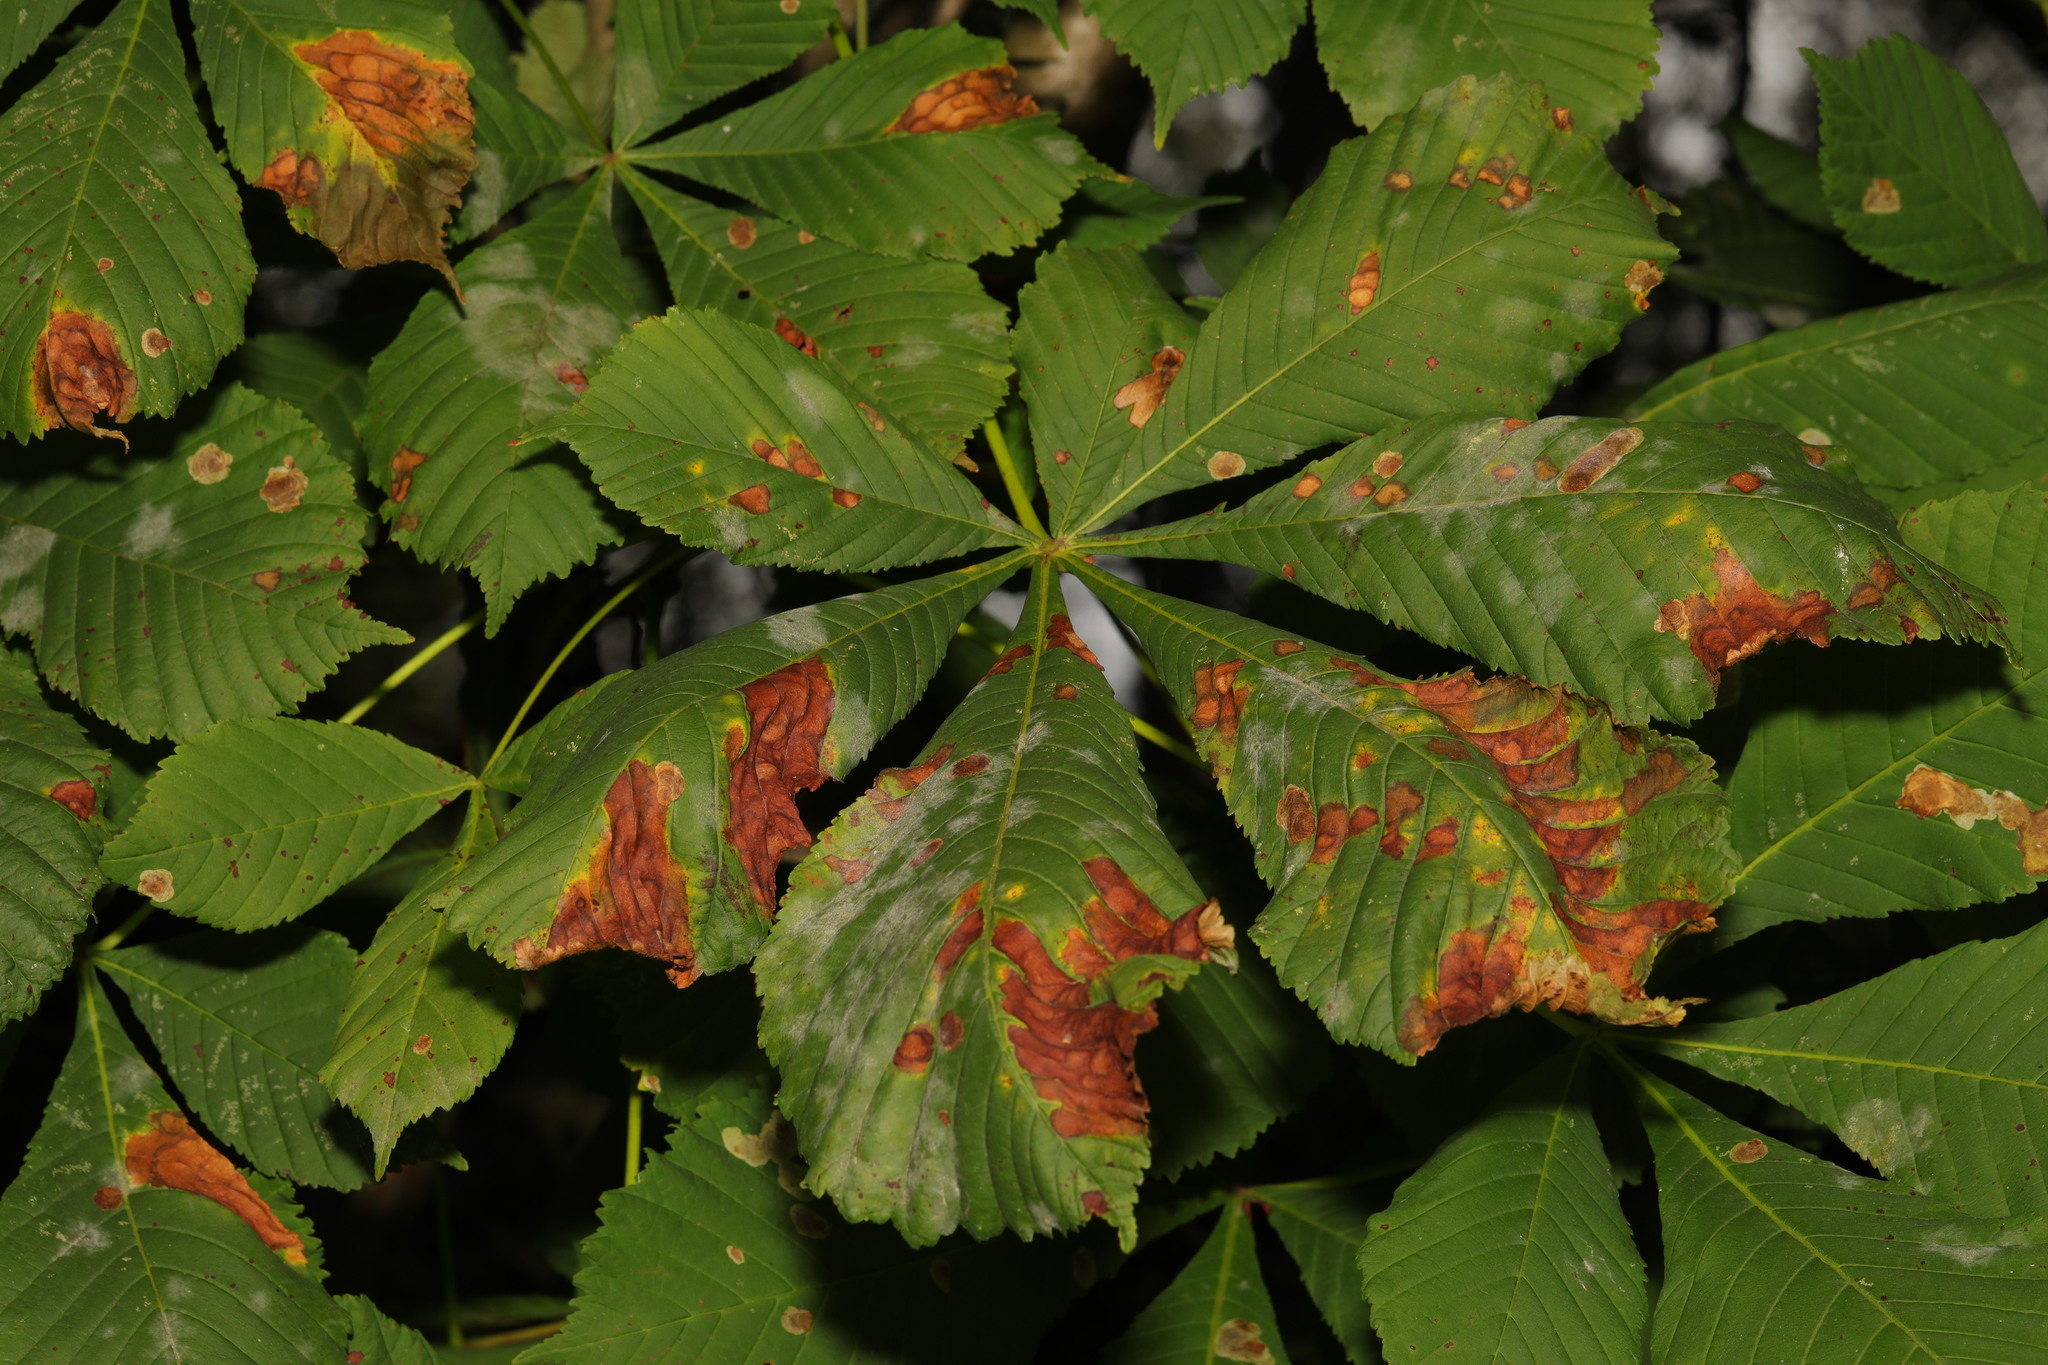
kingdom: Plantae
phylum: Tracheophyta
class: Magnoliopsida
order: Sapindales
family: Sapindaceae
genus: Aesculus
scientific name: Aesculus hippocastanum
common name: Horse-chestnut
